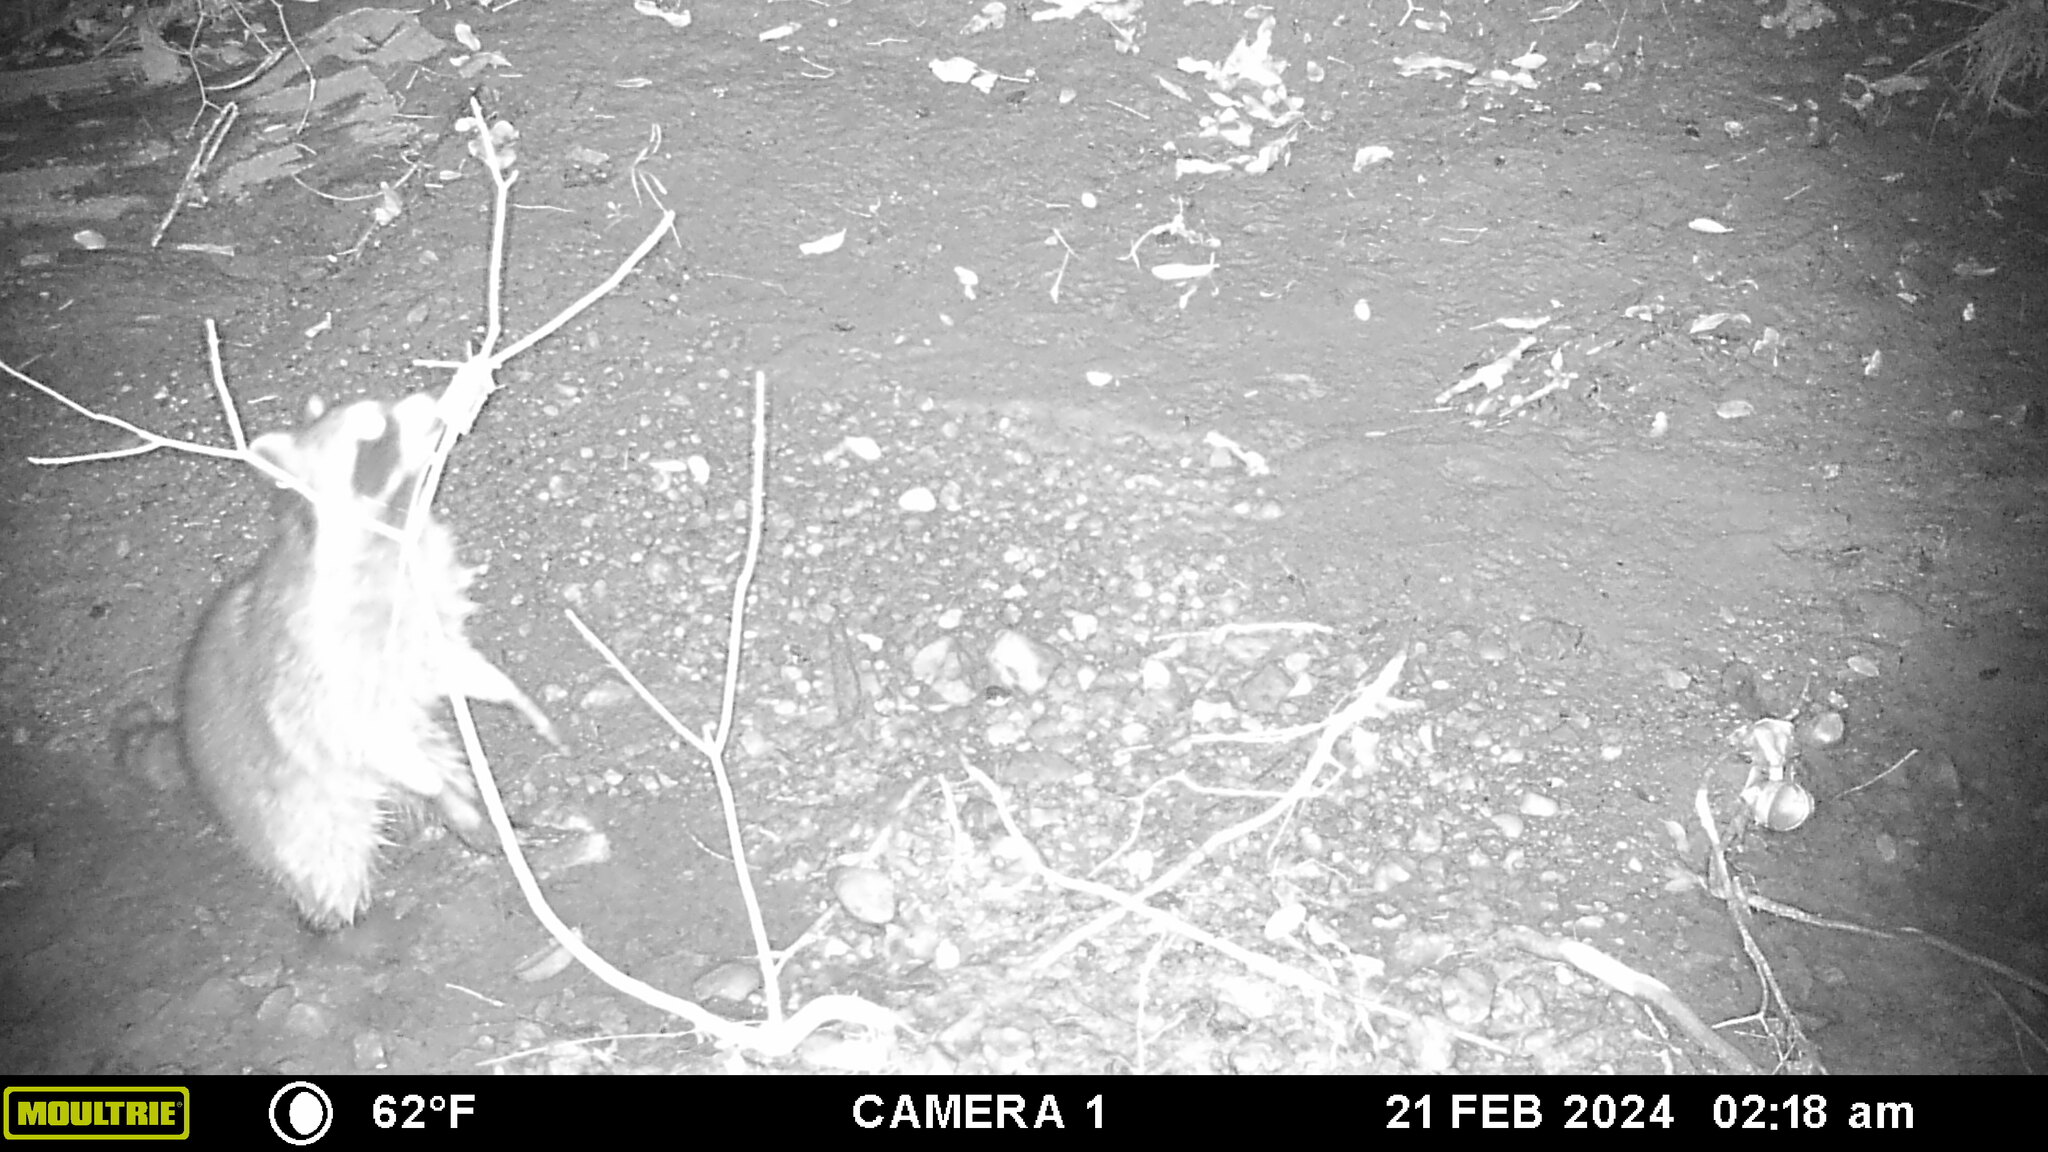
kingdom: Animalia
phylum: Chordata
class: Mammalia
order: Carnivora
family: Procyonidae
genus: Procyon
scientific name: Procyon lotor
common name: Raccoon
